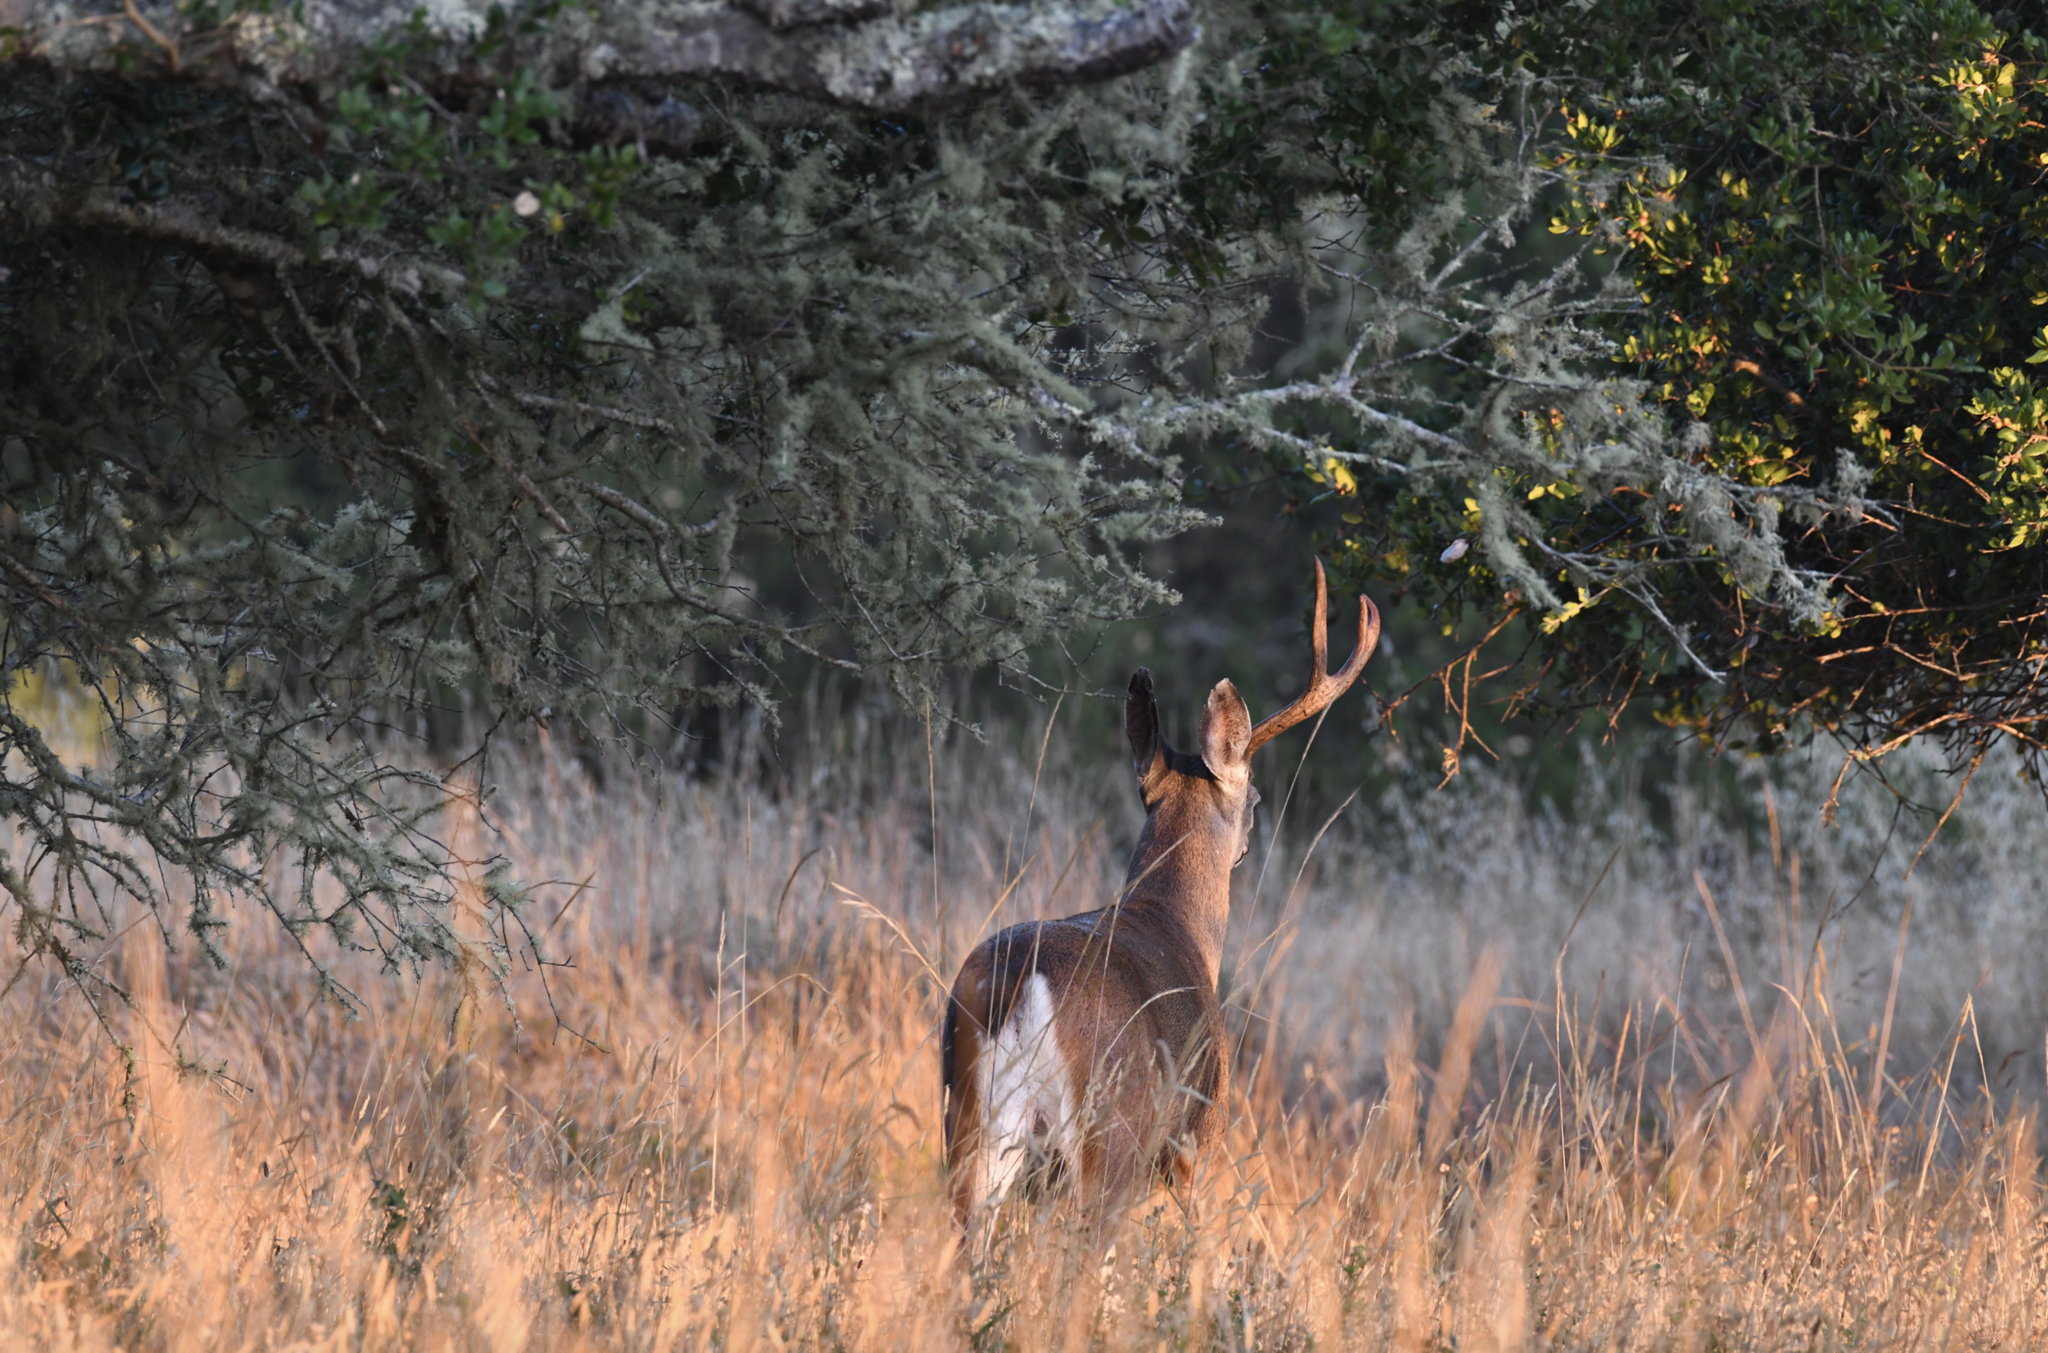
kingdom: Animalia
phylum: Chordata
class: Mammalia
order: Artiodactyla
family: Cervidae
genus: Odocoileus
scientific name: Odocoileus hemionus
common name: Mule deer
